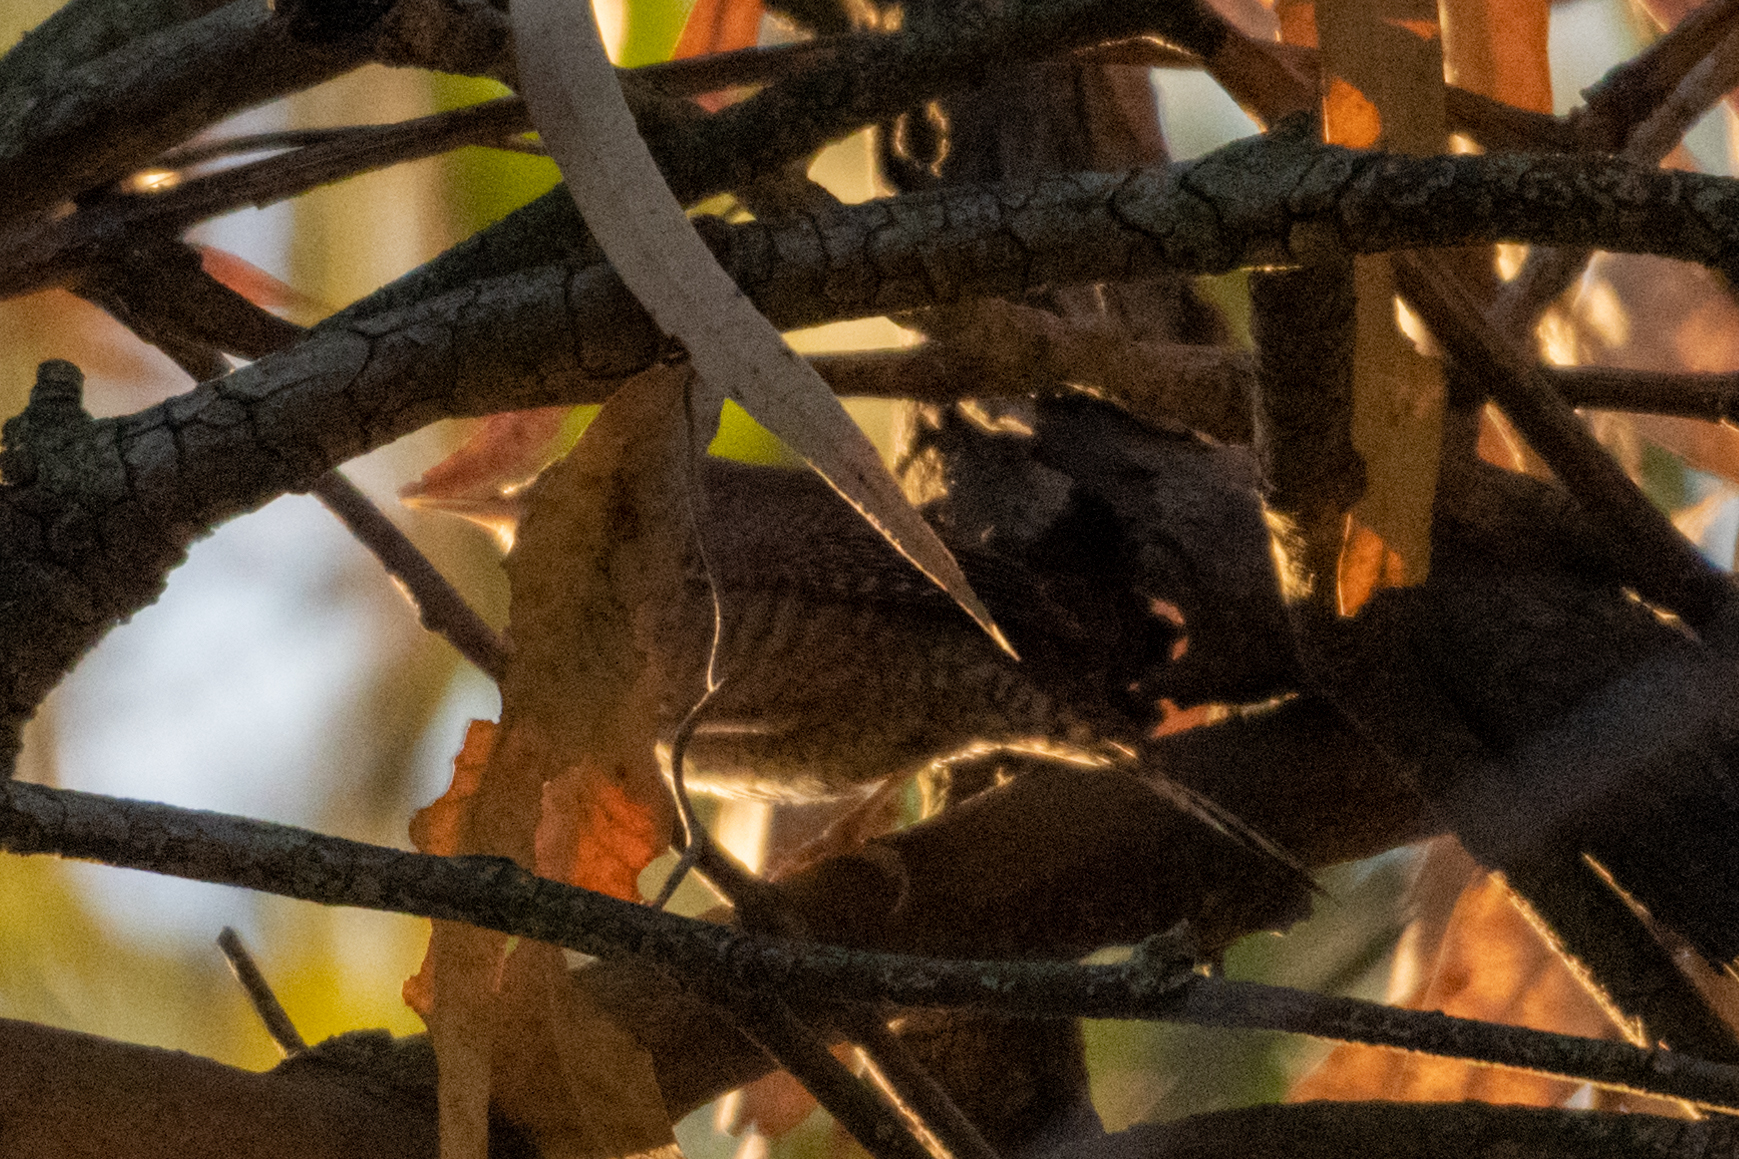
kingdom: Animalia
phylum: Chordata
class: Aves
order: Passeriformes
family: Troglodytidae
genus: Troglodytes
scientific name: Troglodytes aedon
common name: House wren
